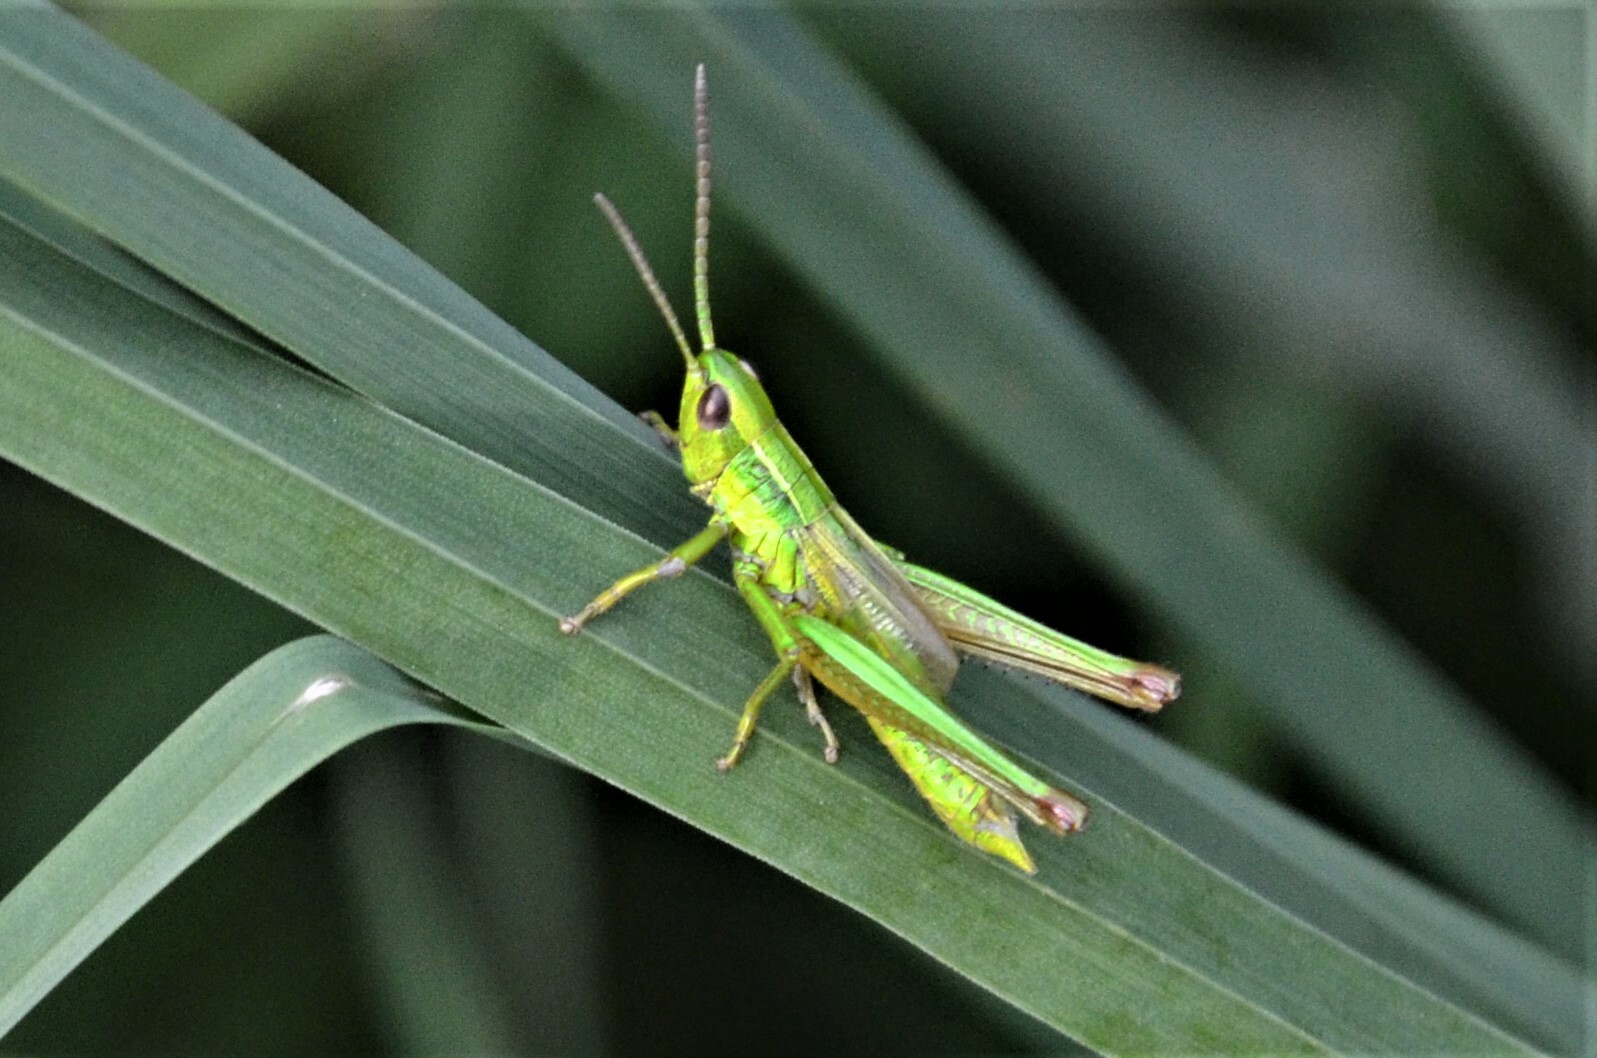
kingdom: Animalia
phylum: Arthropoda
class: Insecta
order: Orthoptera
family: Acrididae
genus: Euthystira
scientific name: Euthystira brachyptera
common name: Small gold grasshopper
